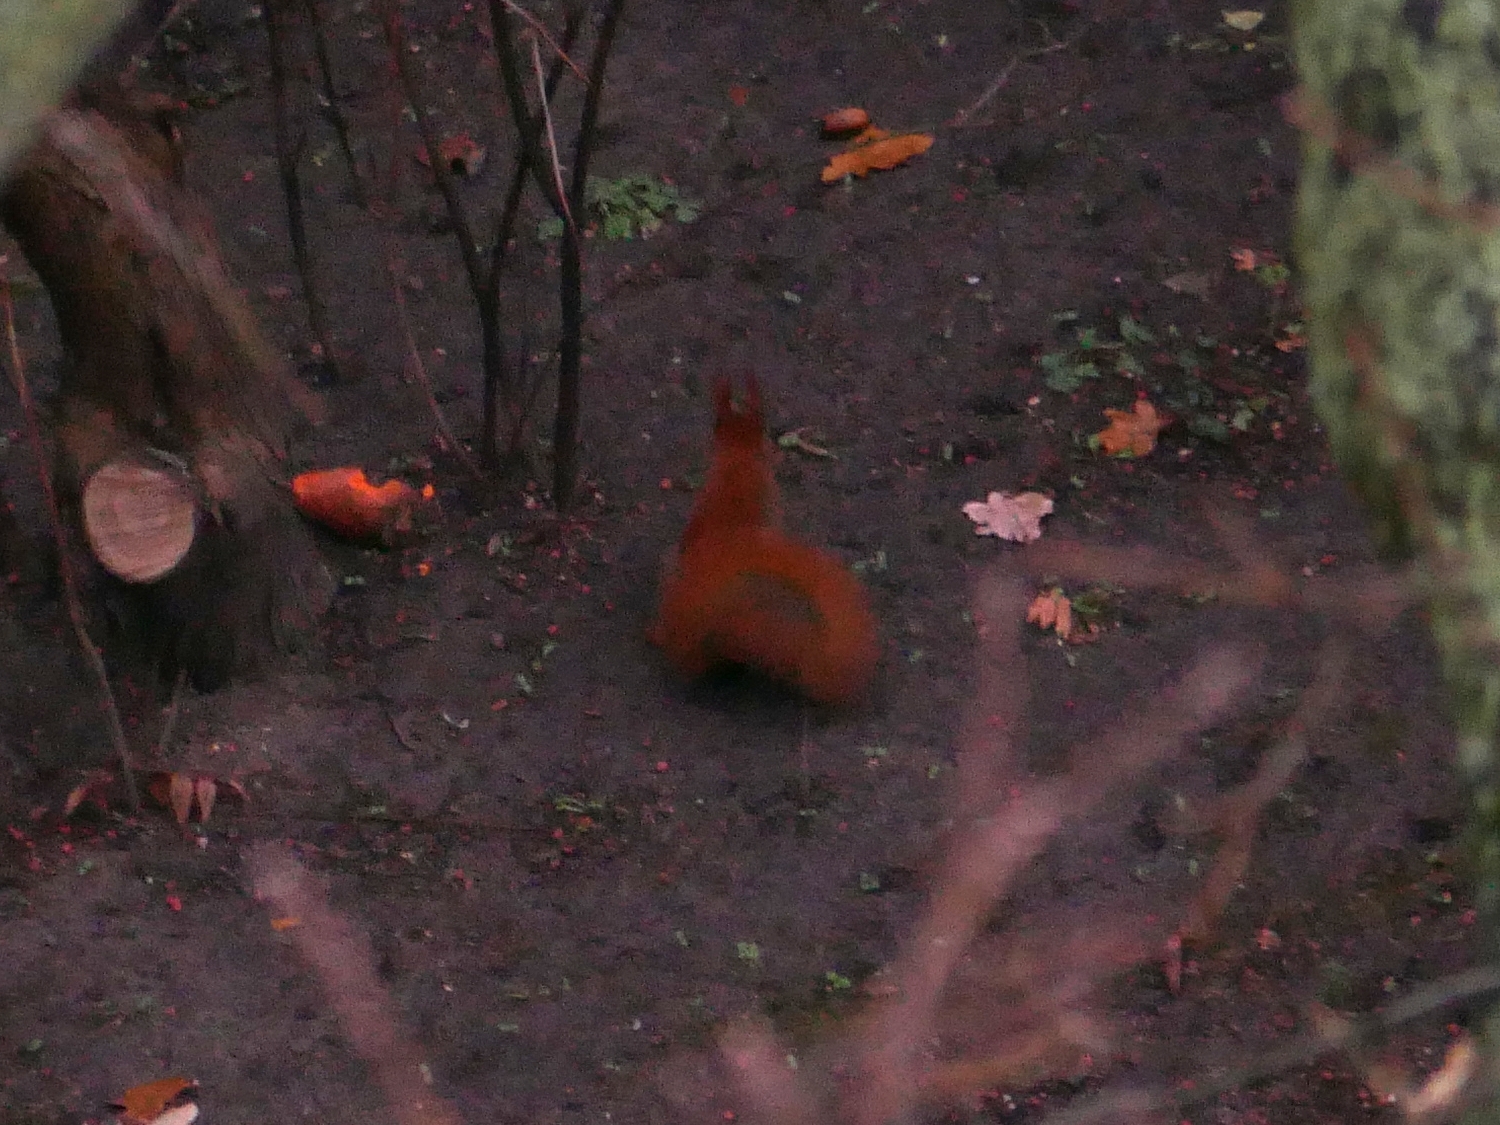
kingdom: Animalia
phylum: Chordata
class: Mammalia
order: Rodentia
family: Sciuridae
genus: Sciurus
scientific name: Sciurus vulgaris
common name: Eurasian red squirrel
